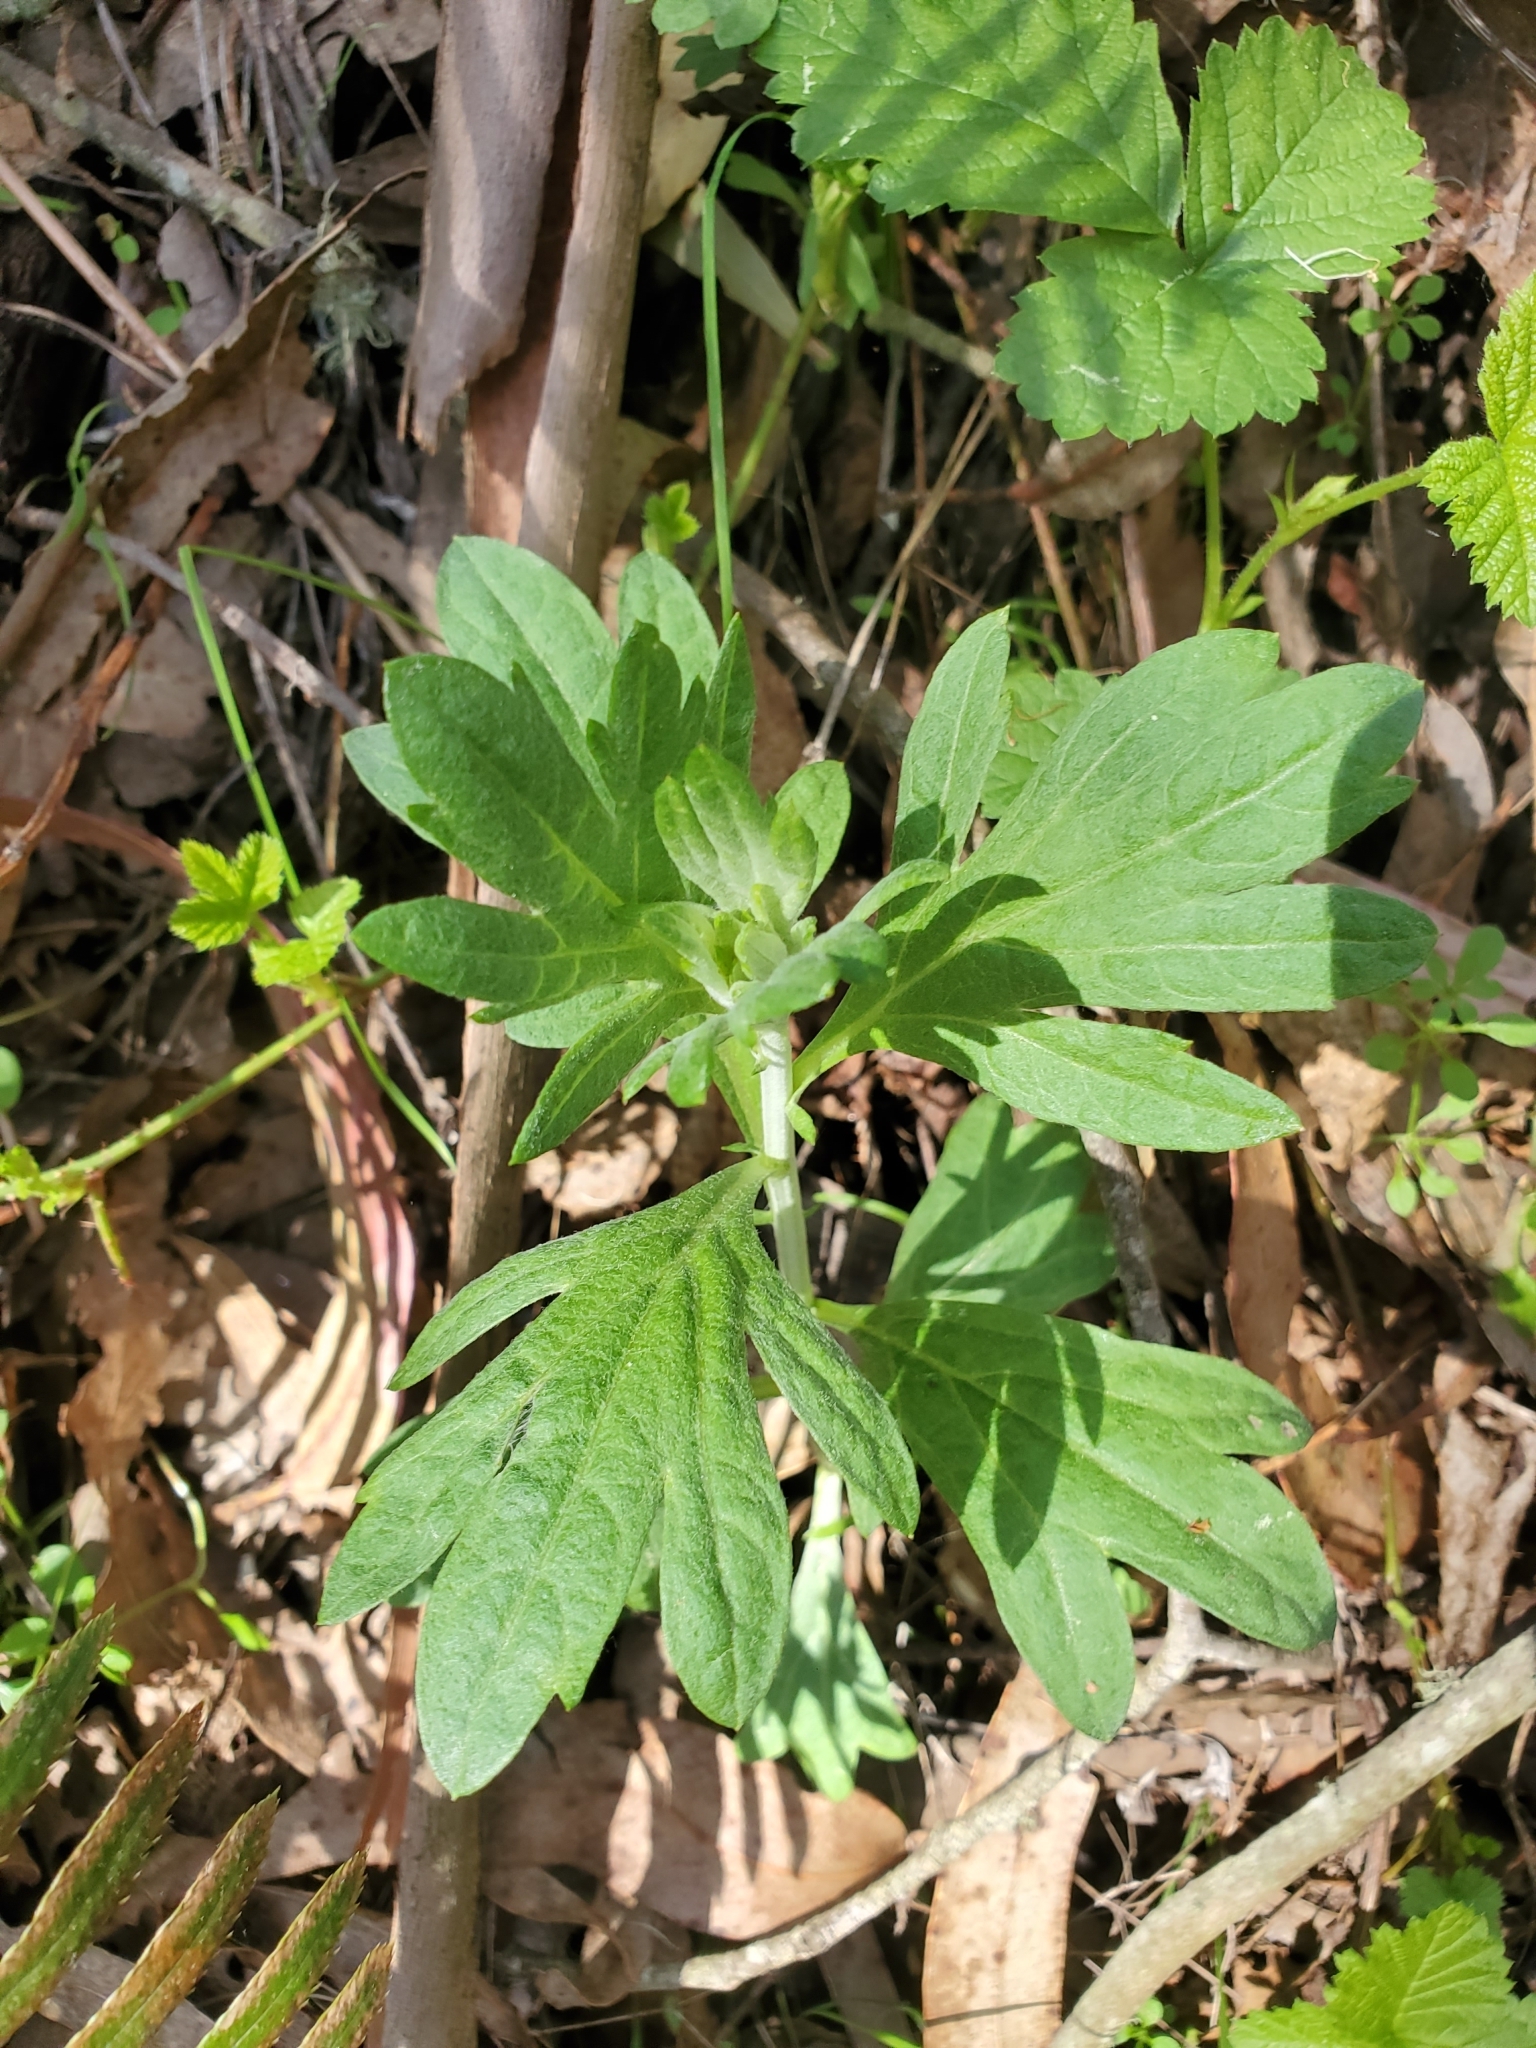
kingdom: Plantae
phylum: Tracheophyta
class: Magnoliopsida
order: Asterales
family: Asteraceae
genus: Artemisia
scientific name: Artemisia douglasiana
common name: Northwest mugwort
